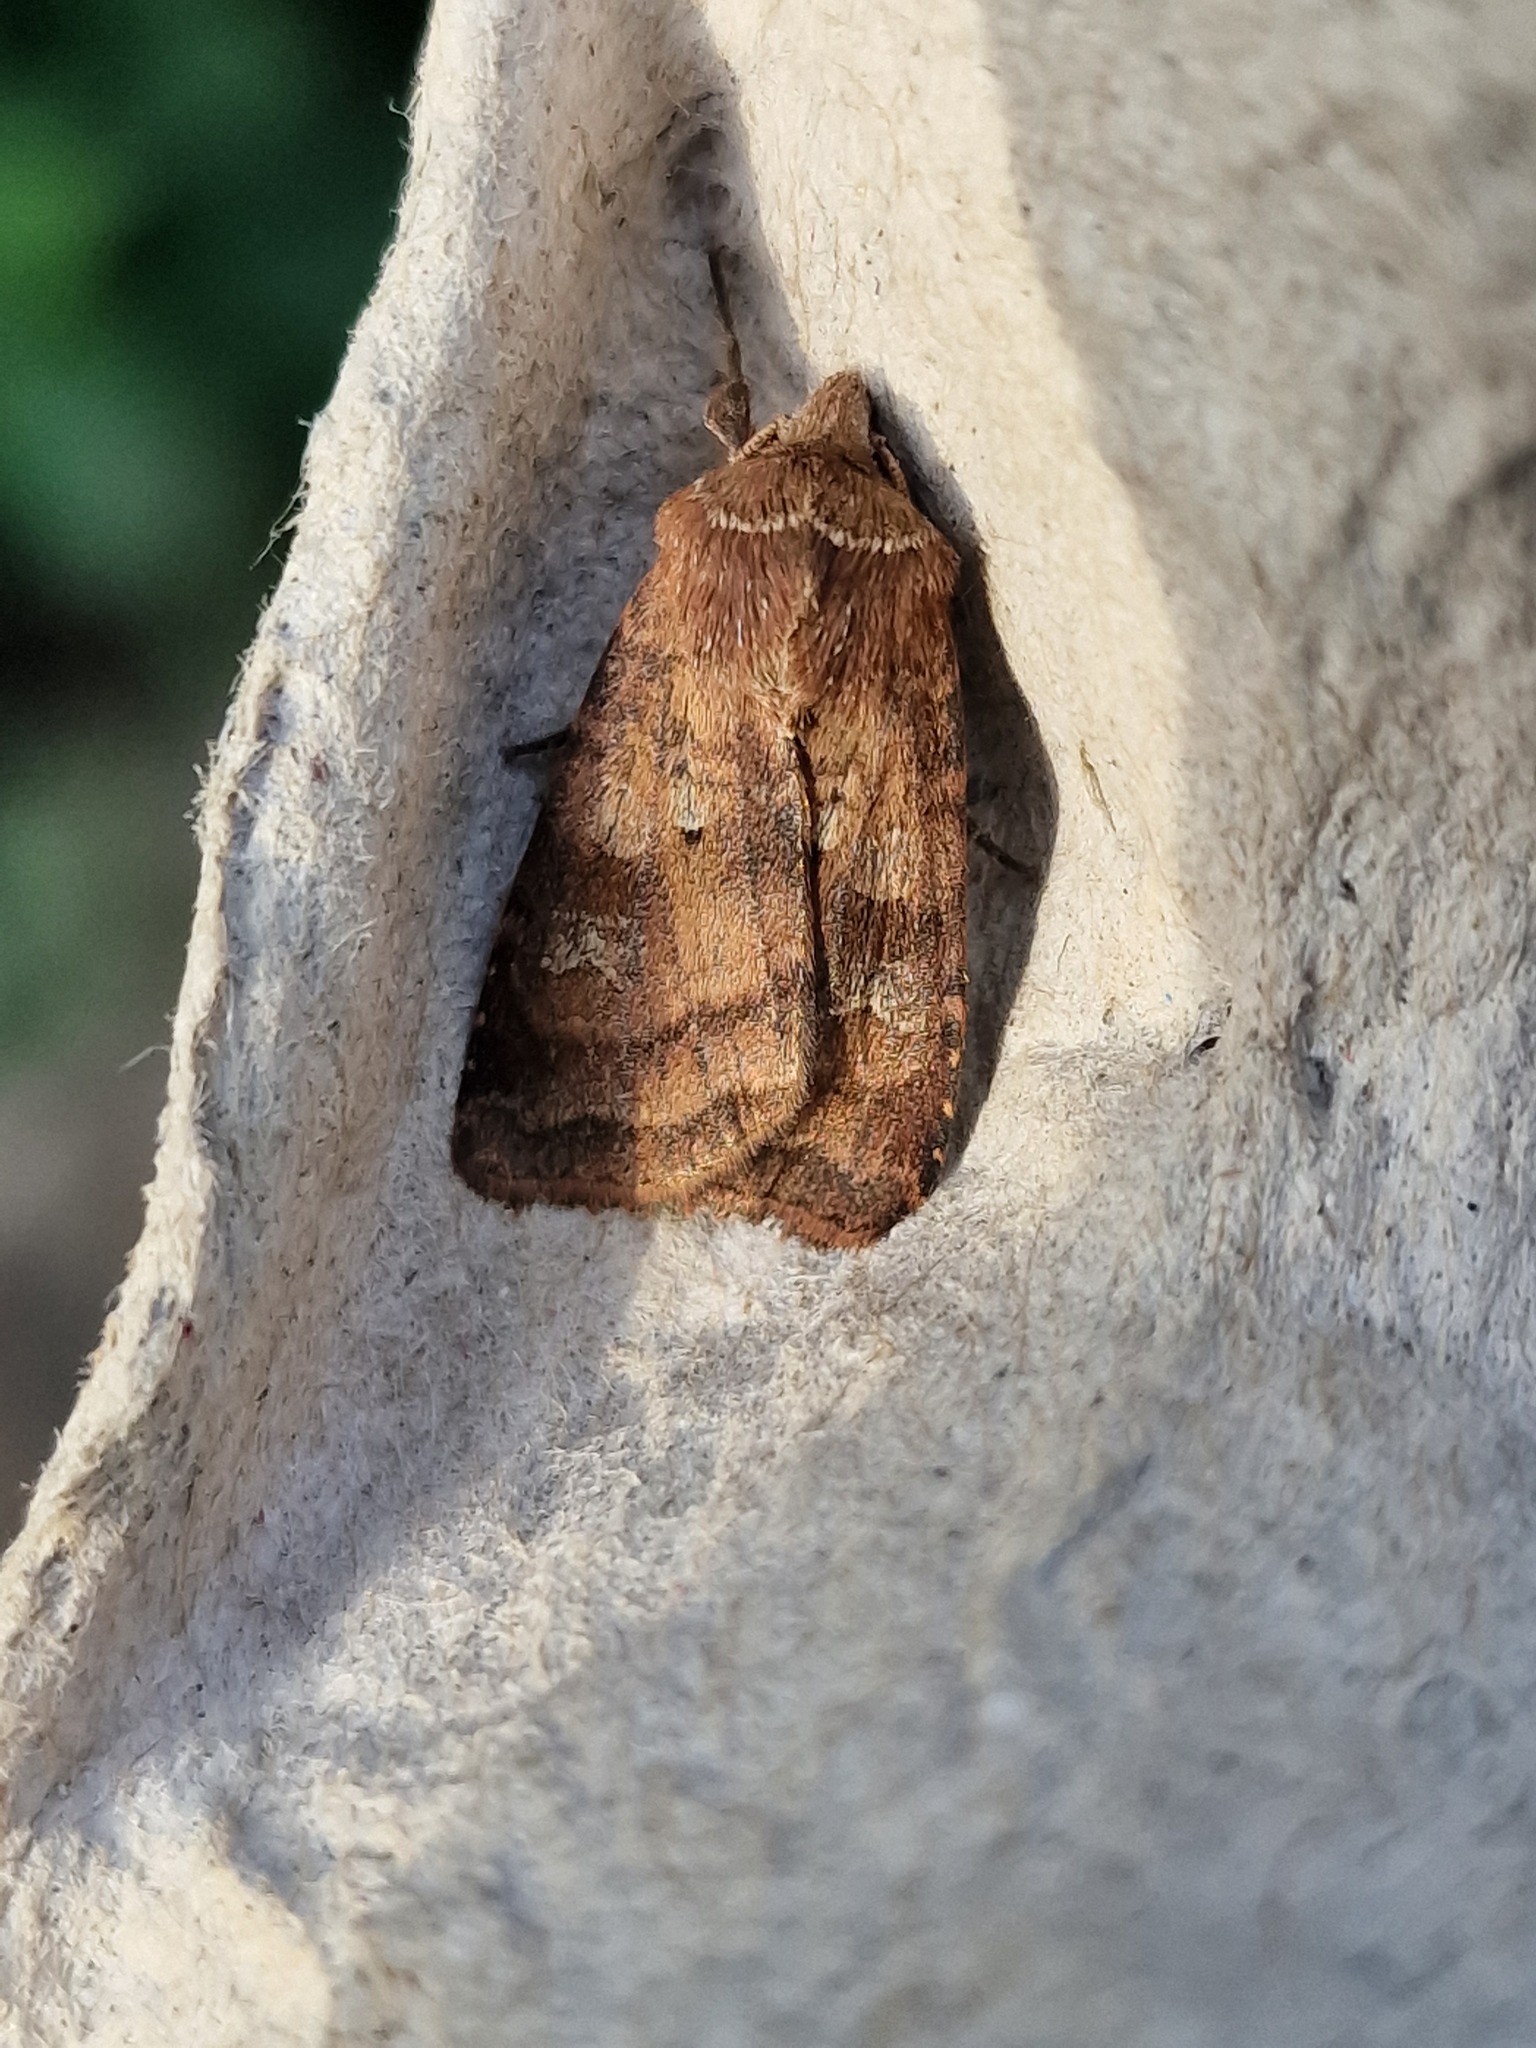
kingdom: Animalia
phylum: Arthropoda
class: Insecta
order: Lepidoptera
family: Noctuidae
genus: Diarsia
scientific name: Diarsia rubi
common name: Small square-spot
